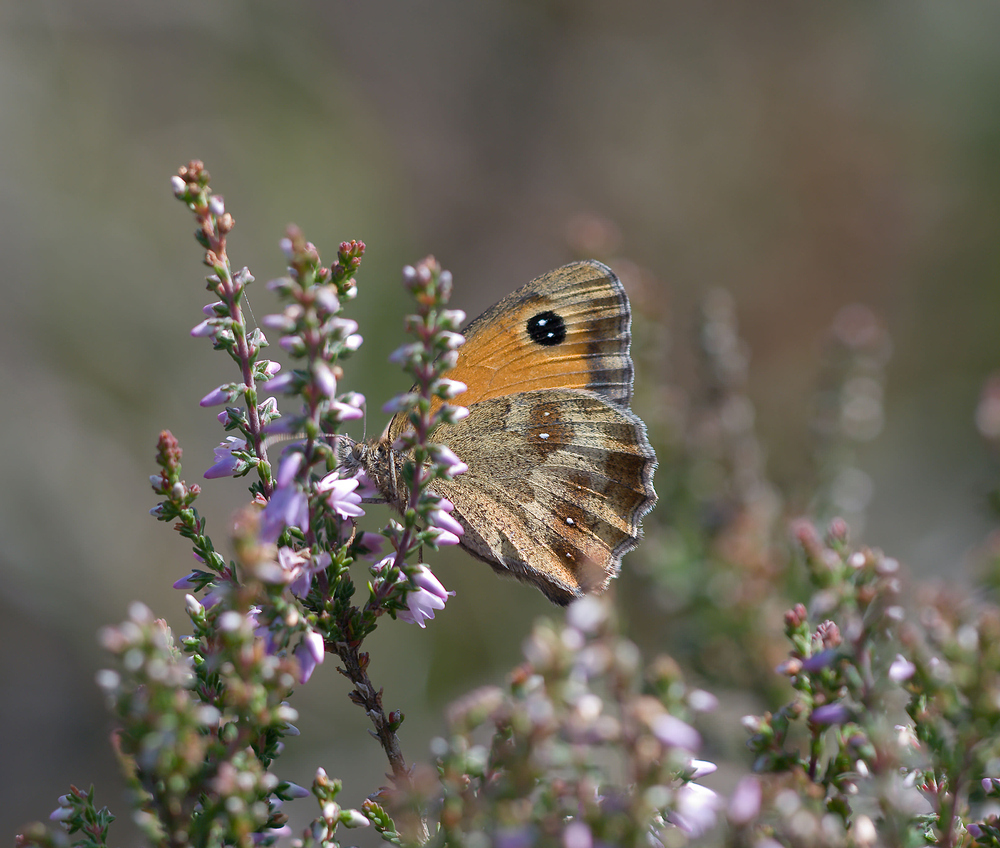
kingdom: Animalia
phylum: Arthropoda
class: Insecta
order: Lepidoptera
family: Nymphalidae
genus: Pyronia
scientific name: Pyronia tithonus
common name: Gatekeeper
